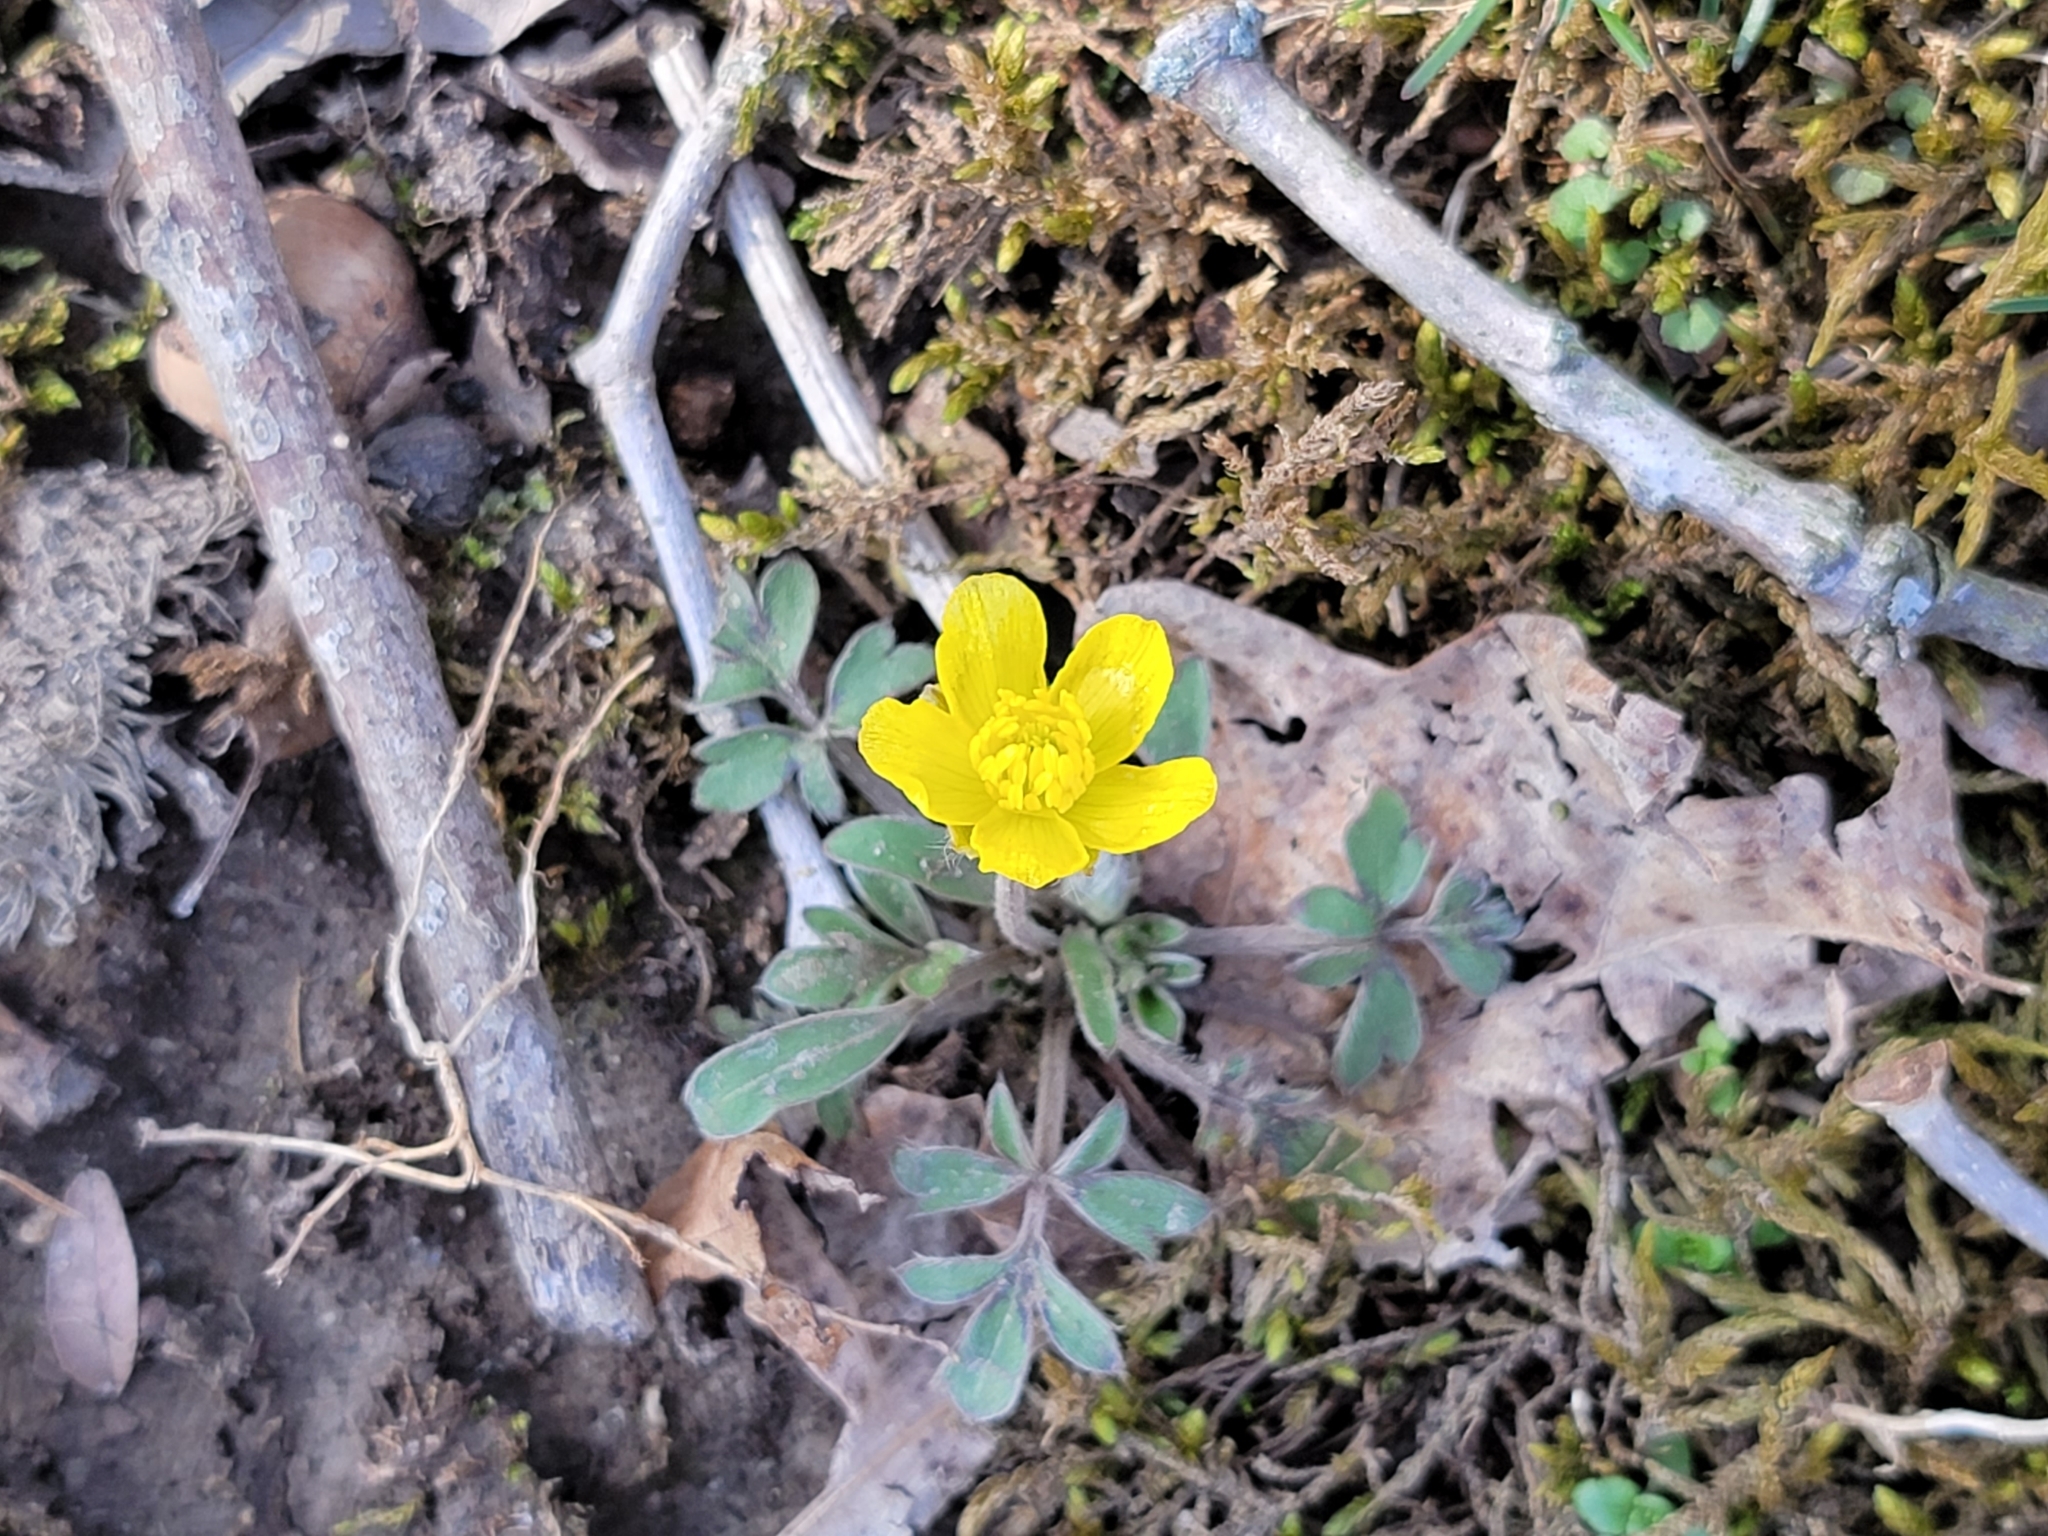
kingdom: Plantae
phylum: Tracheophyta
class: Magnoliopsida
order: Ranunculales
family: Ranunculaceae
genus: Ranunculus
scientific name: Ranunculus fascicularis
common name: Early buttercup
